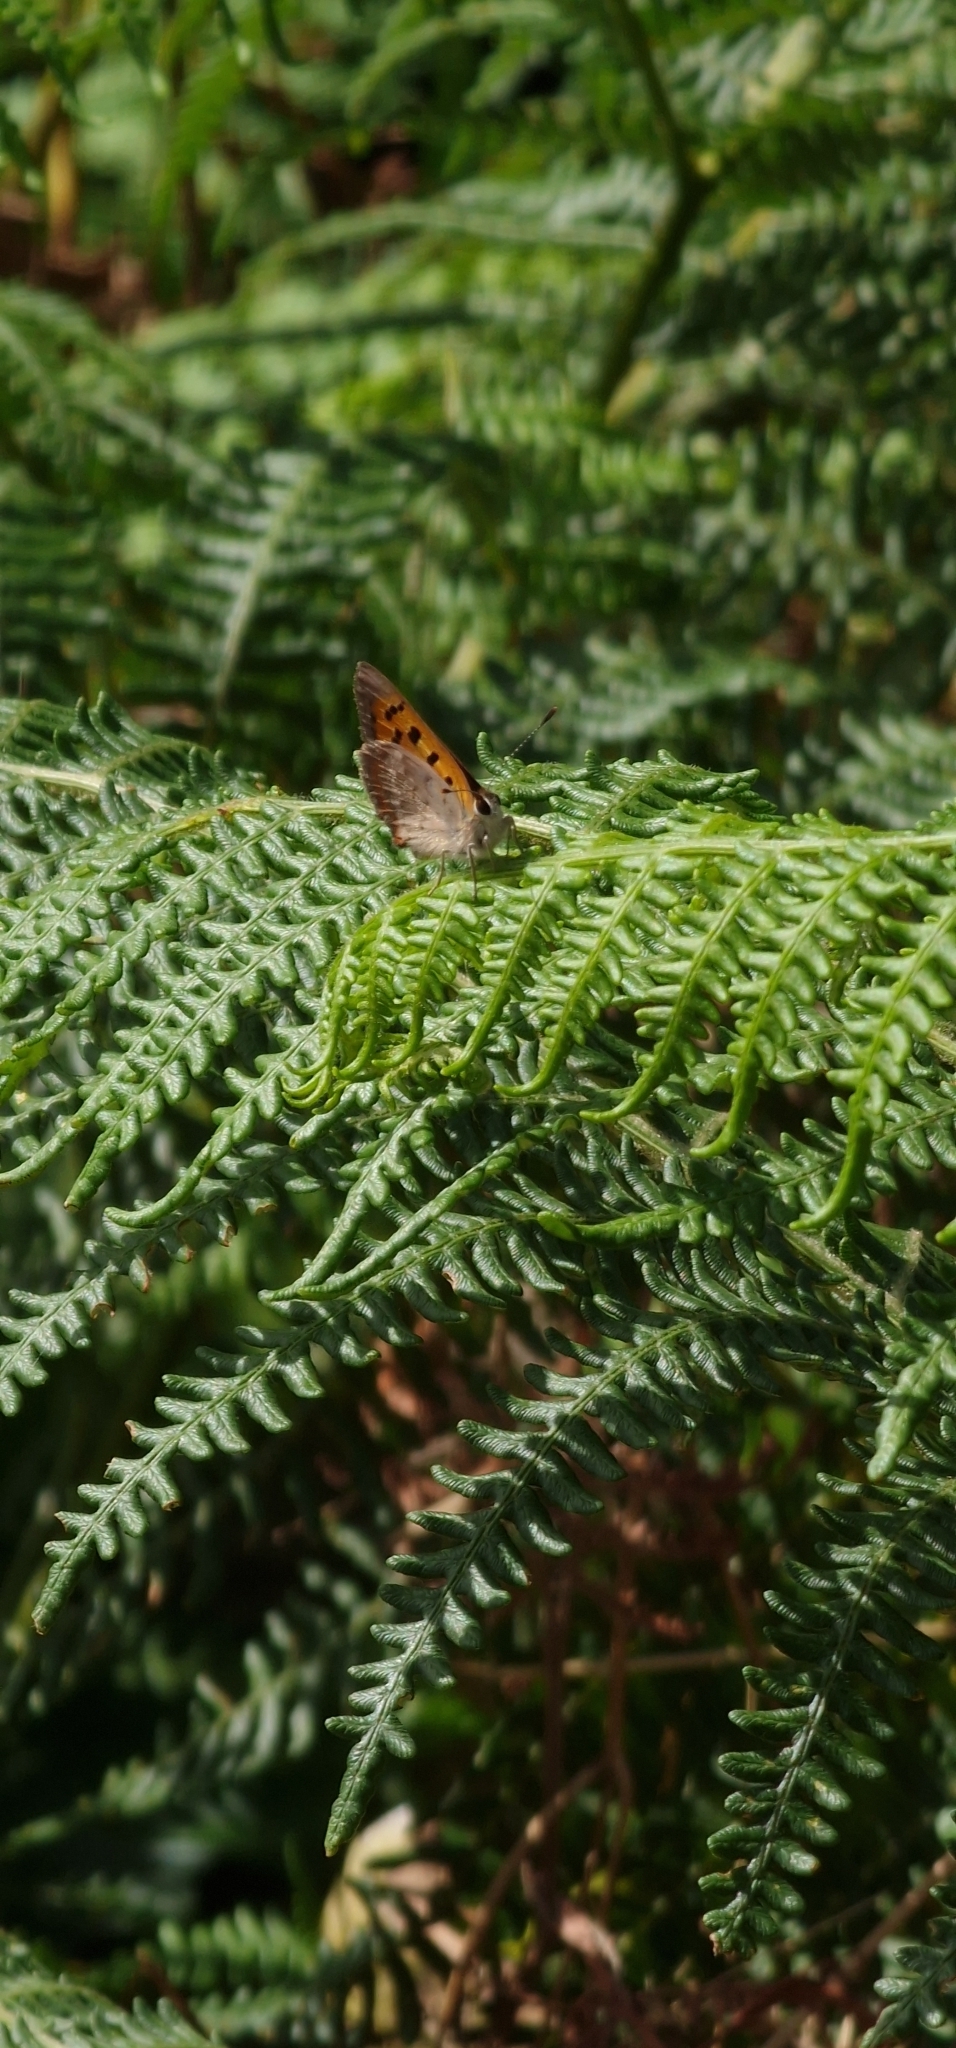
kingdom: Animalia
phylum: Arthropoda
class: Insecta
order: Lepidoptera
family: Lycaenidae
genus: Lycaena
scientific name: Lycaena phlaeas
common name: Small copper
